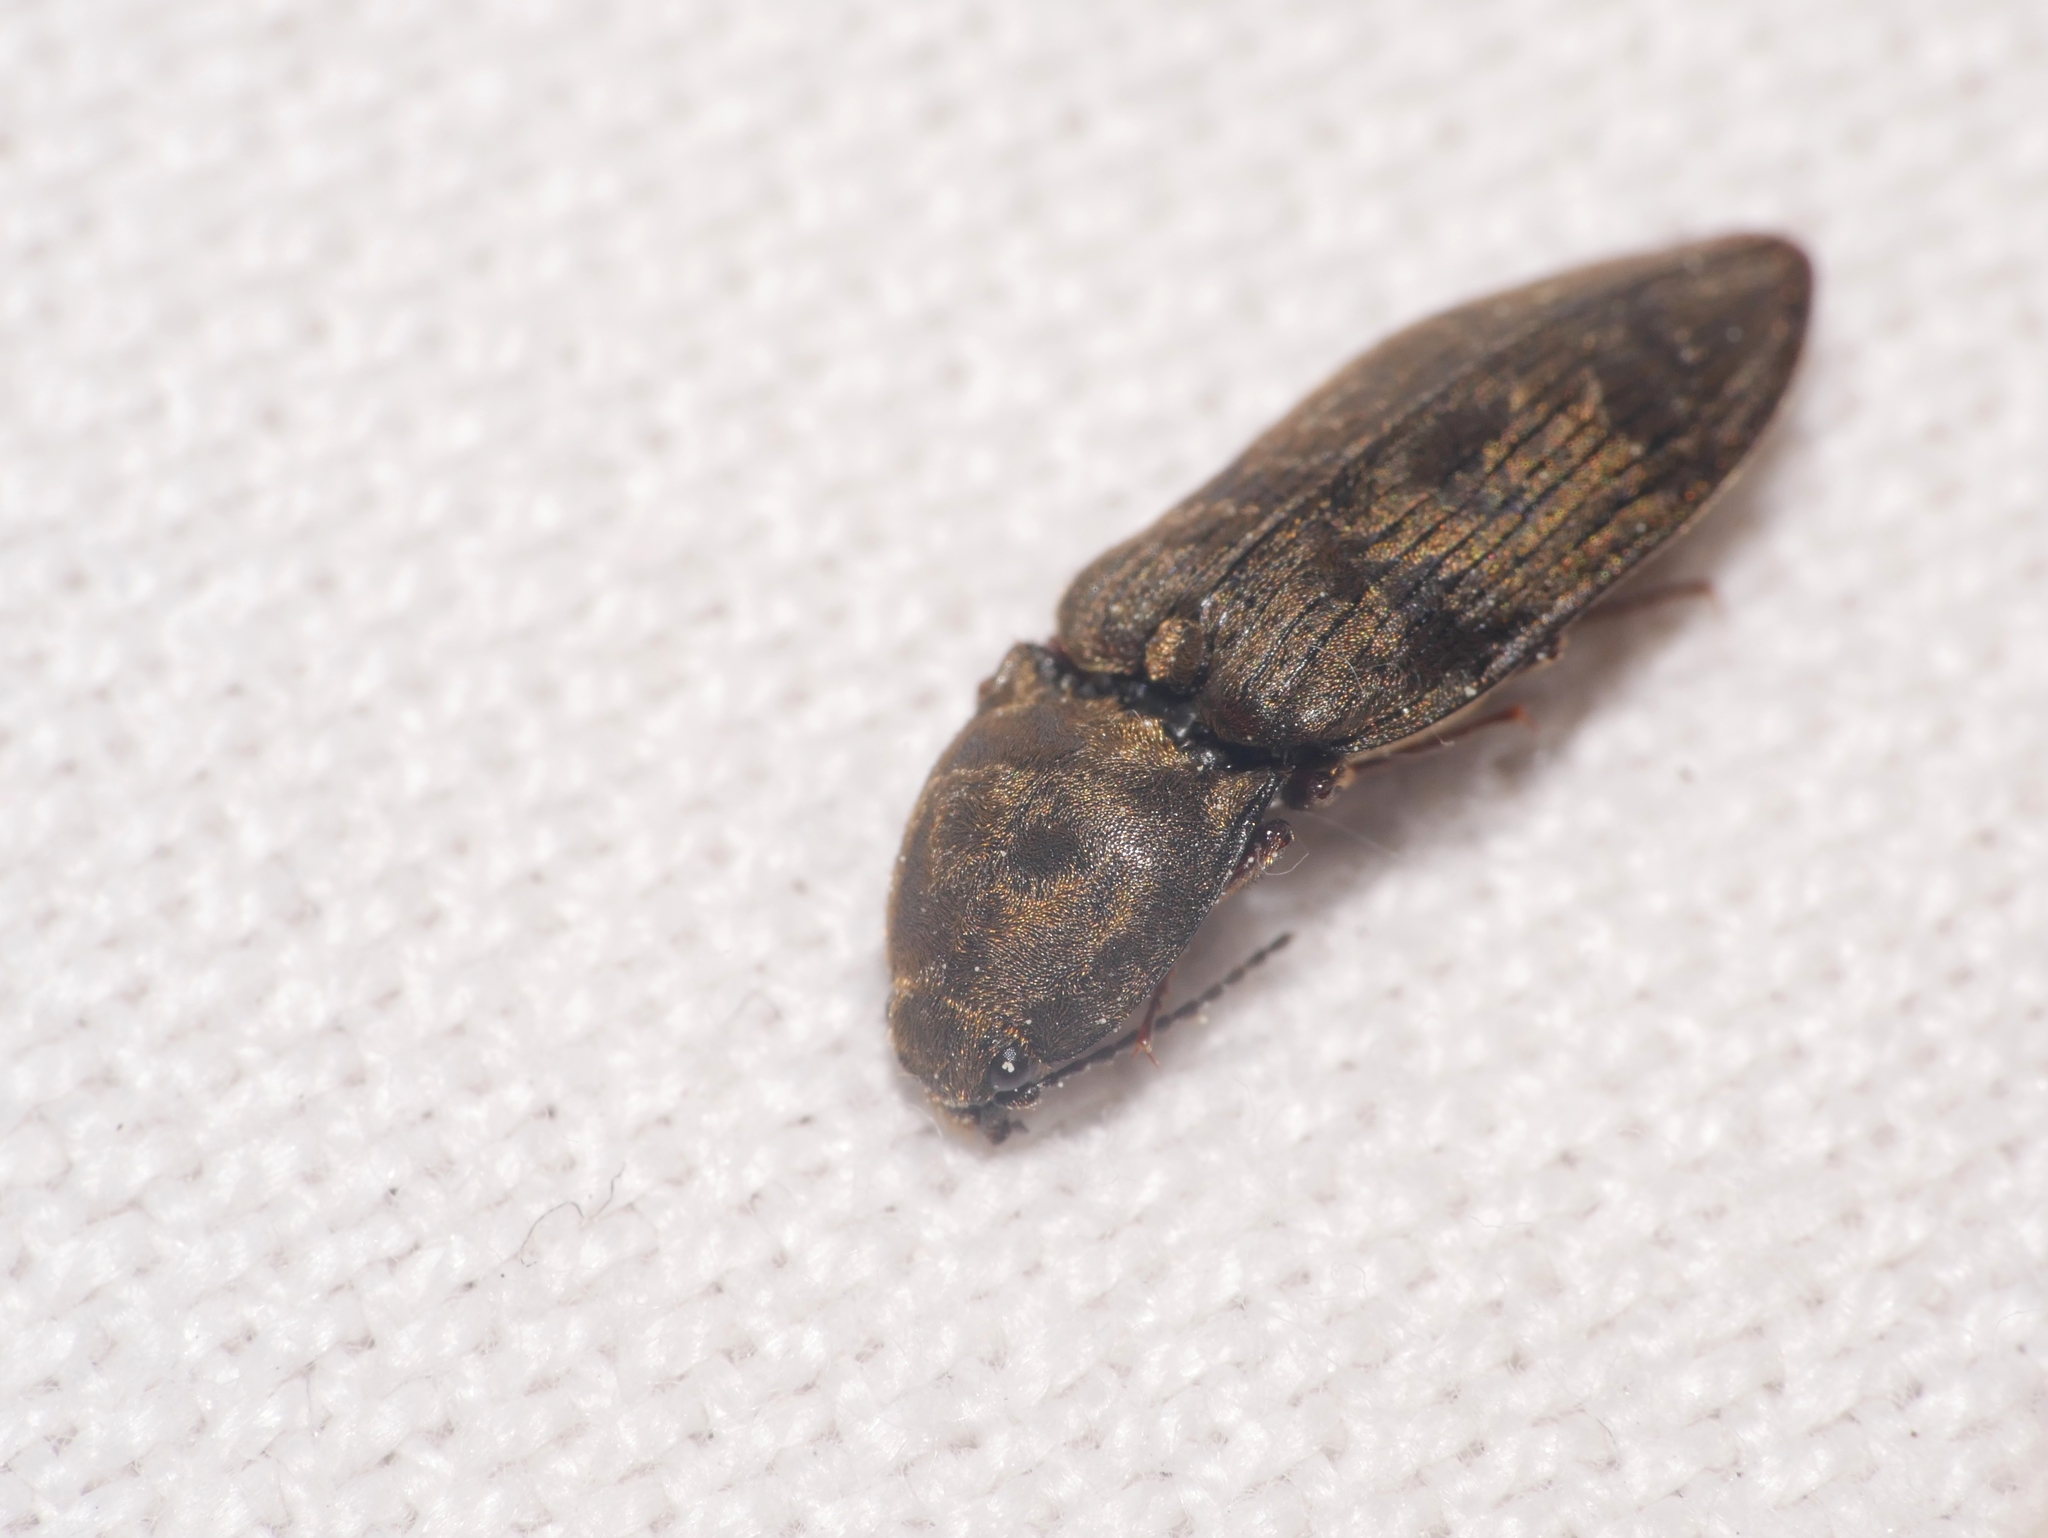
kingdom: Animalia
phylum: Arthropoda
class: Insecta
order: Coleoptera
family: Elateridae
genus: Prosternon
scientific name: Prosternon tessellatum
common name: Chequered click beetle
